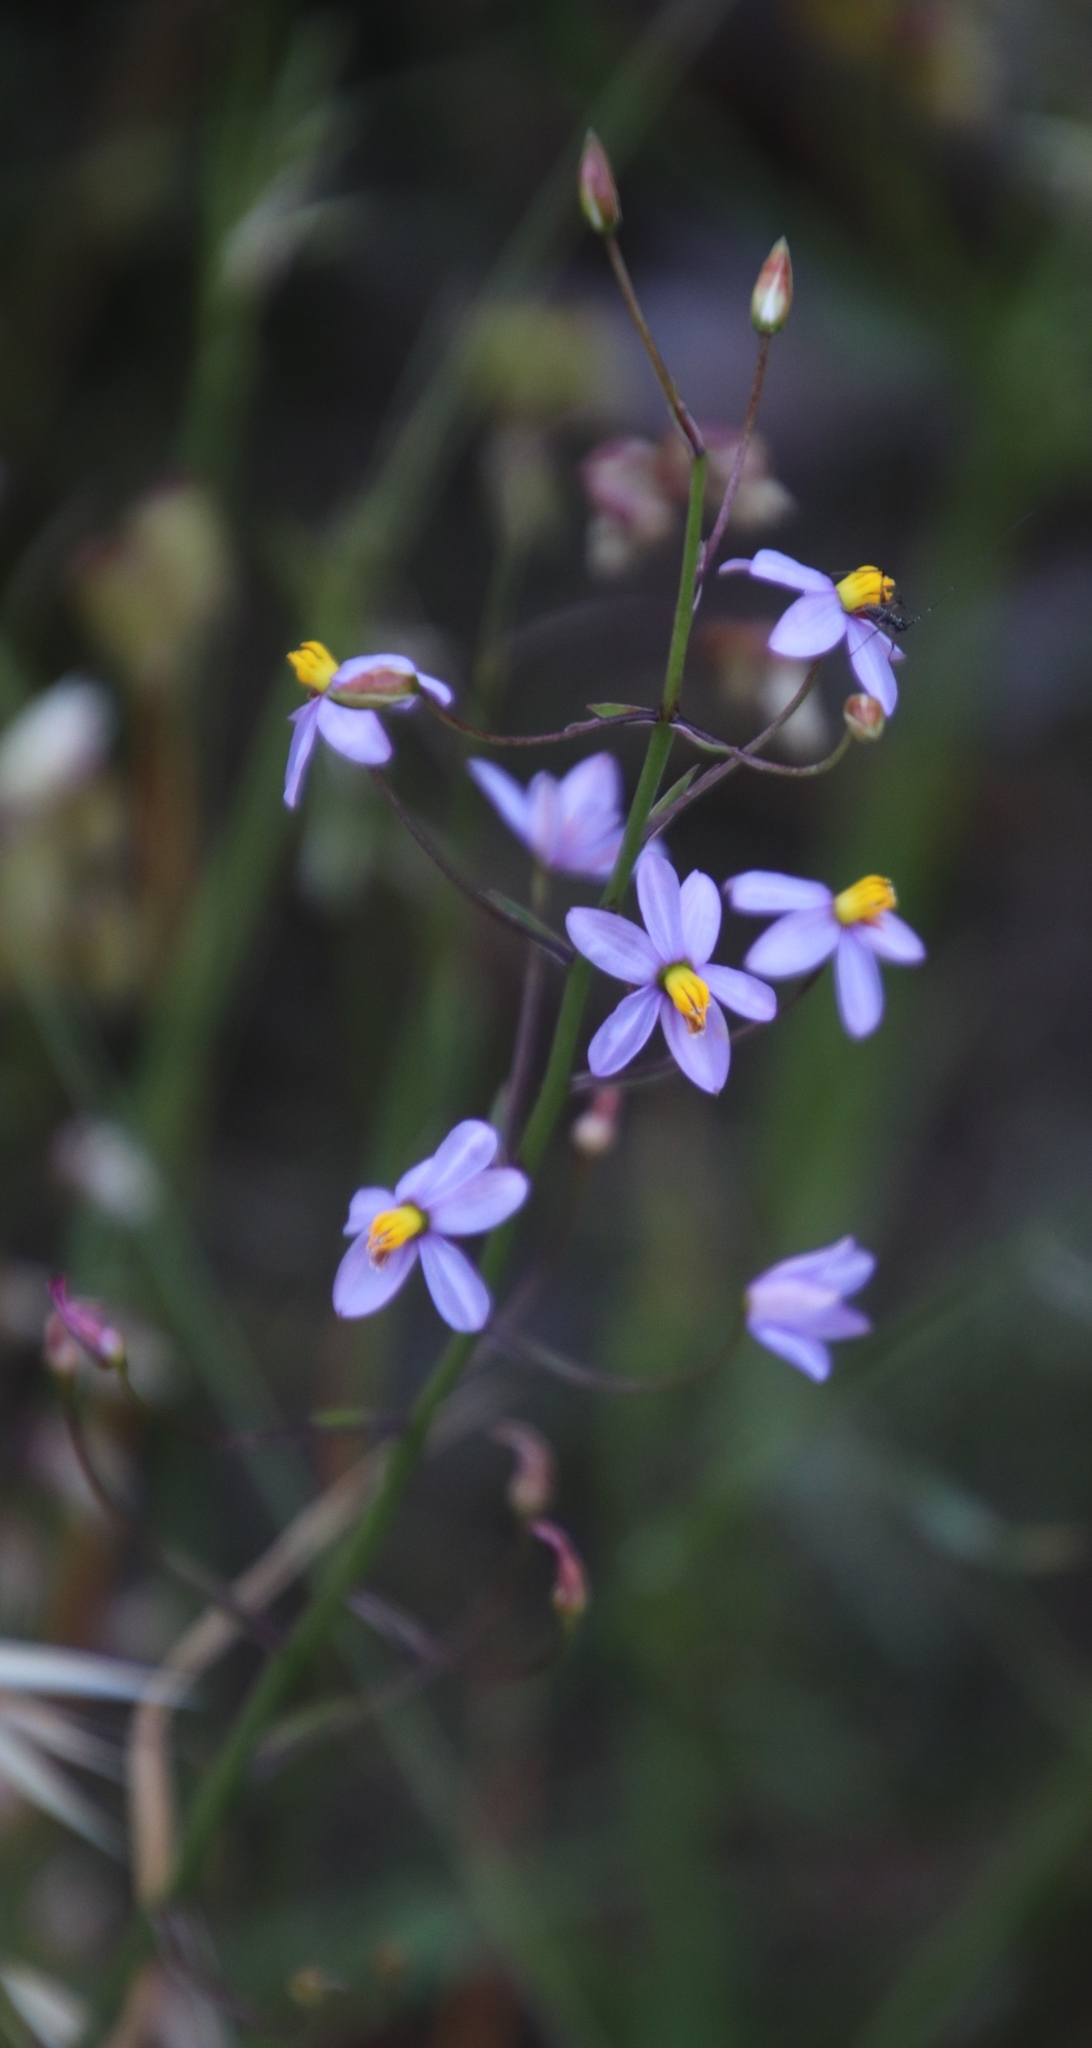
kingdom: Plantae
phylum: Tracheophyta
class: Liliopsida
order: Asparagales
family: Tecophilaeaceae
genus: Cyanella
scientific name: Cyanella hyacinthoides
